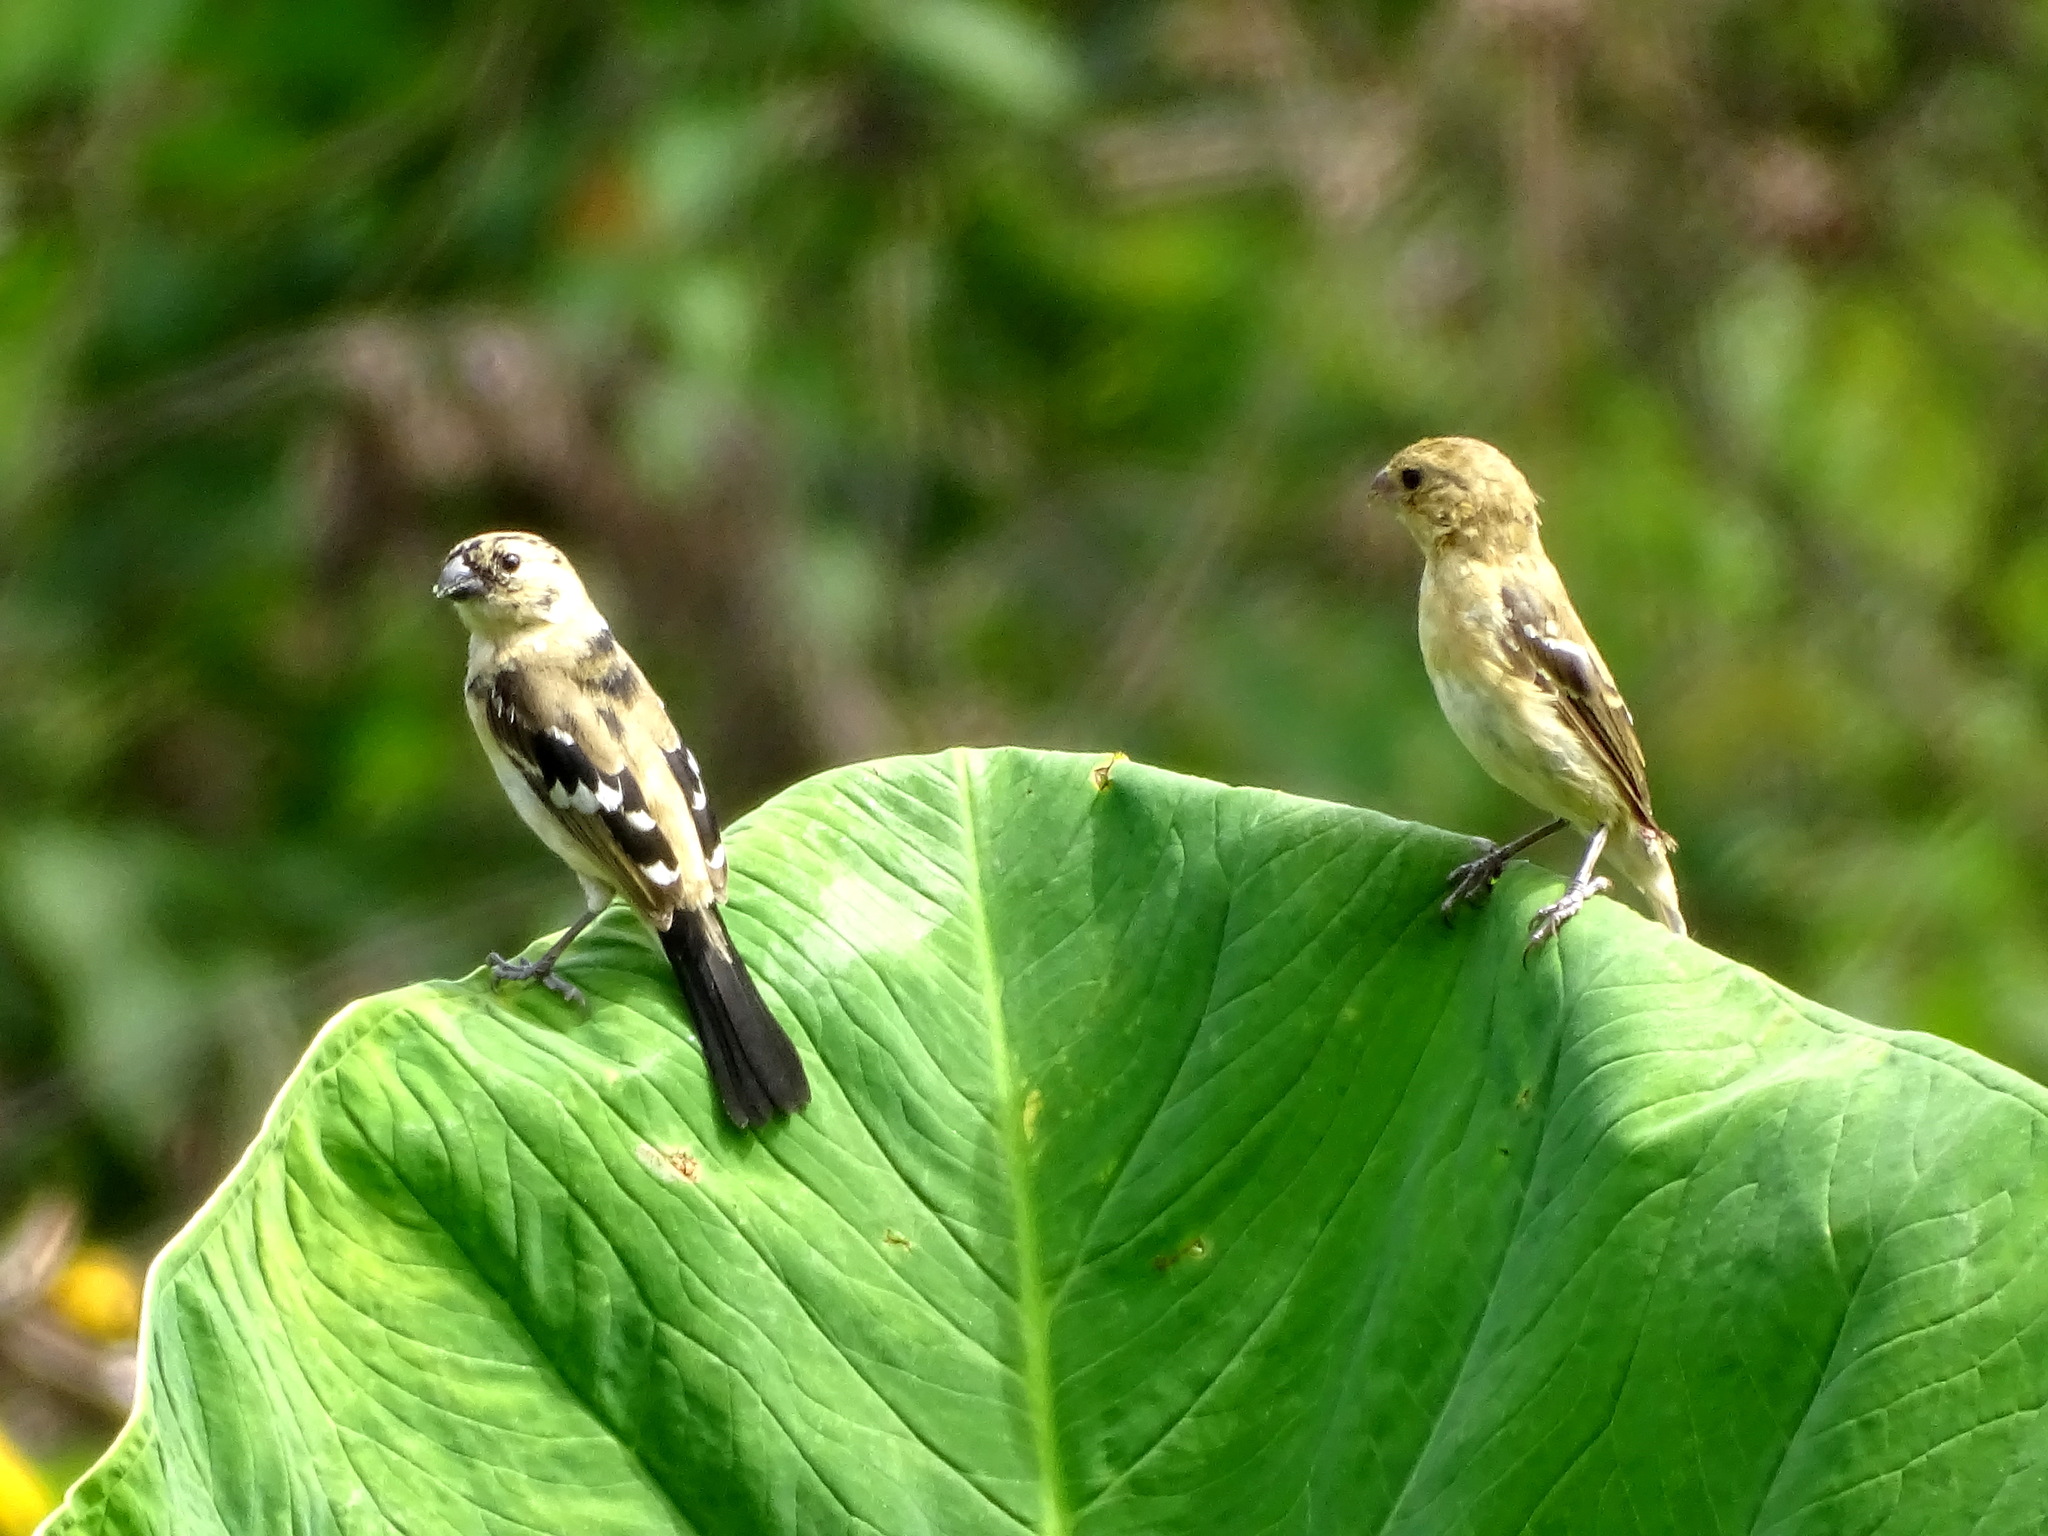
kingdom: Animalia
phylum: Chordata
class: Aves
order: Passeriformes
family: Thraupidae
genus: Sporophila
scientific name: Sporophila morelleti
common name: Morelet's seedeater
